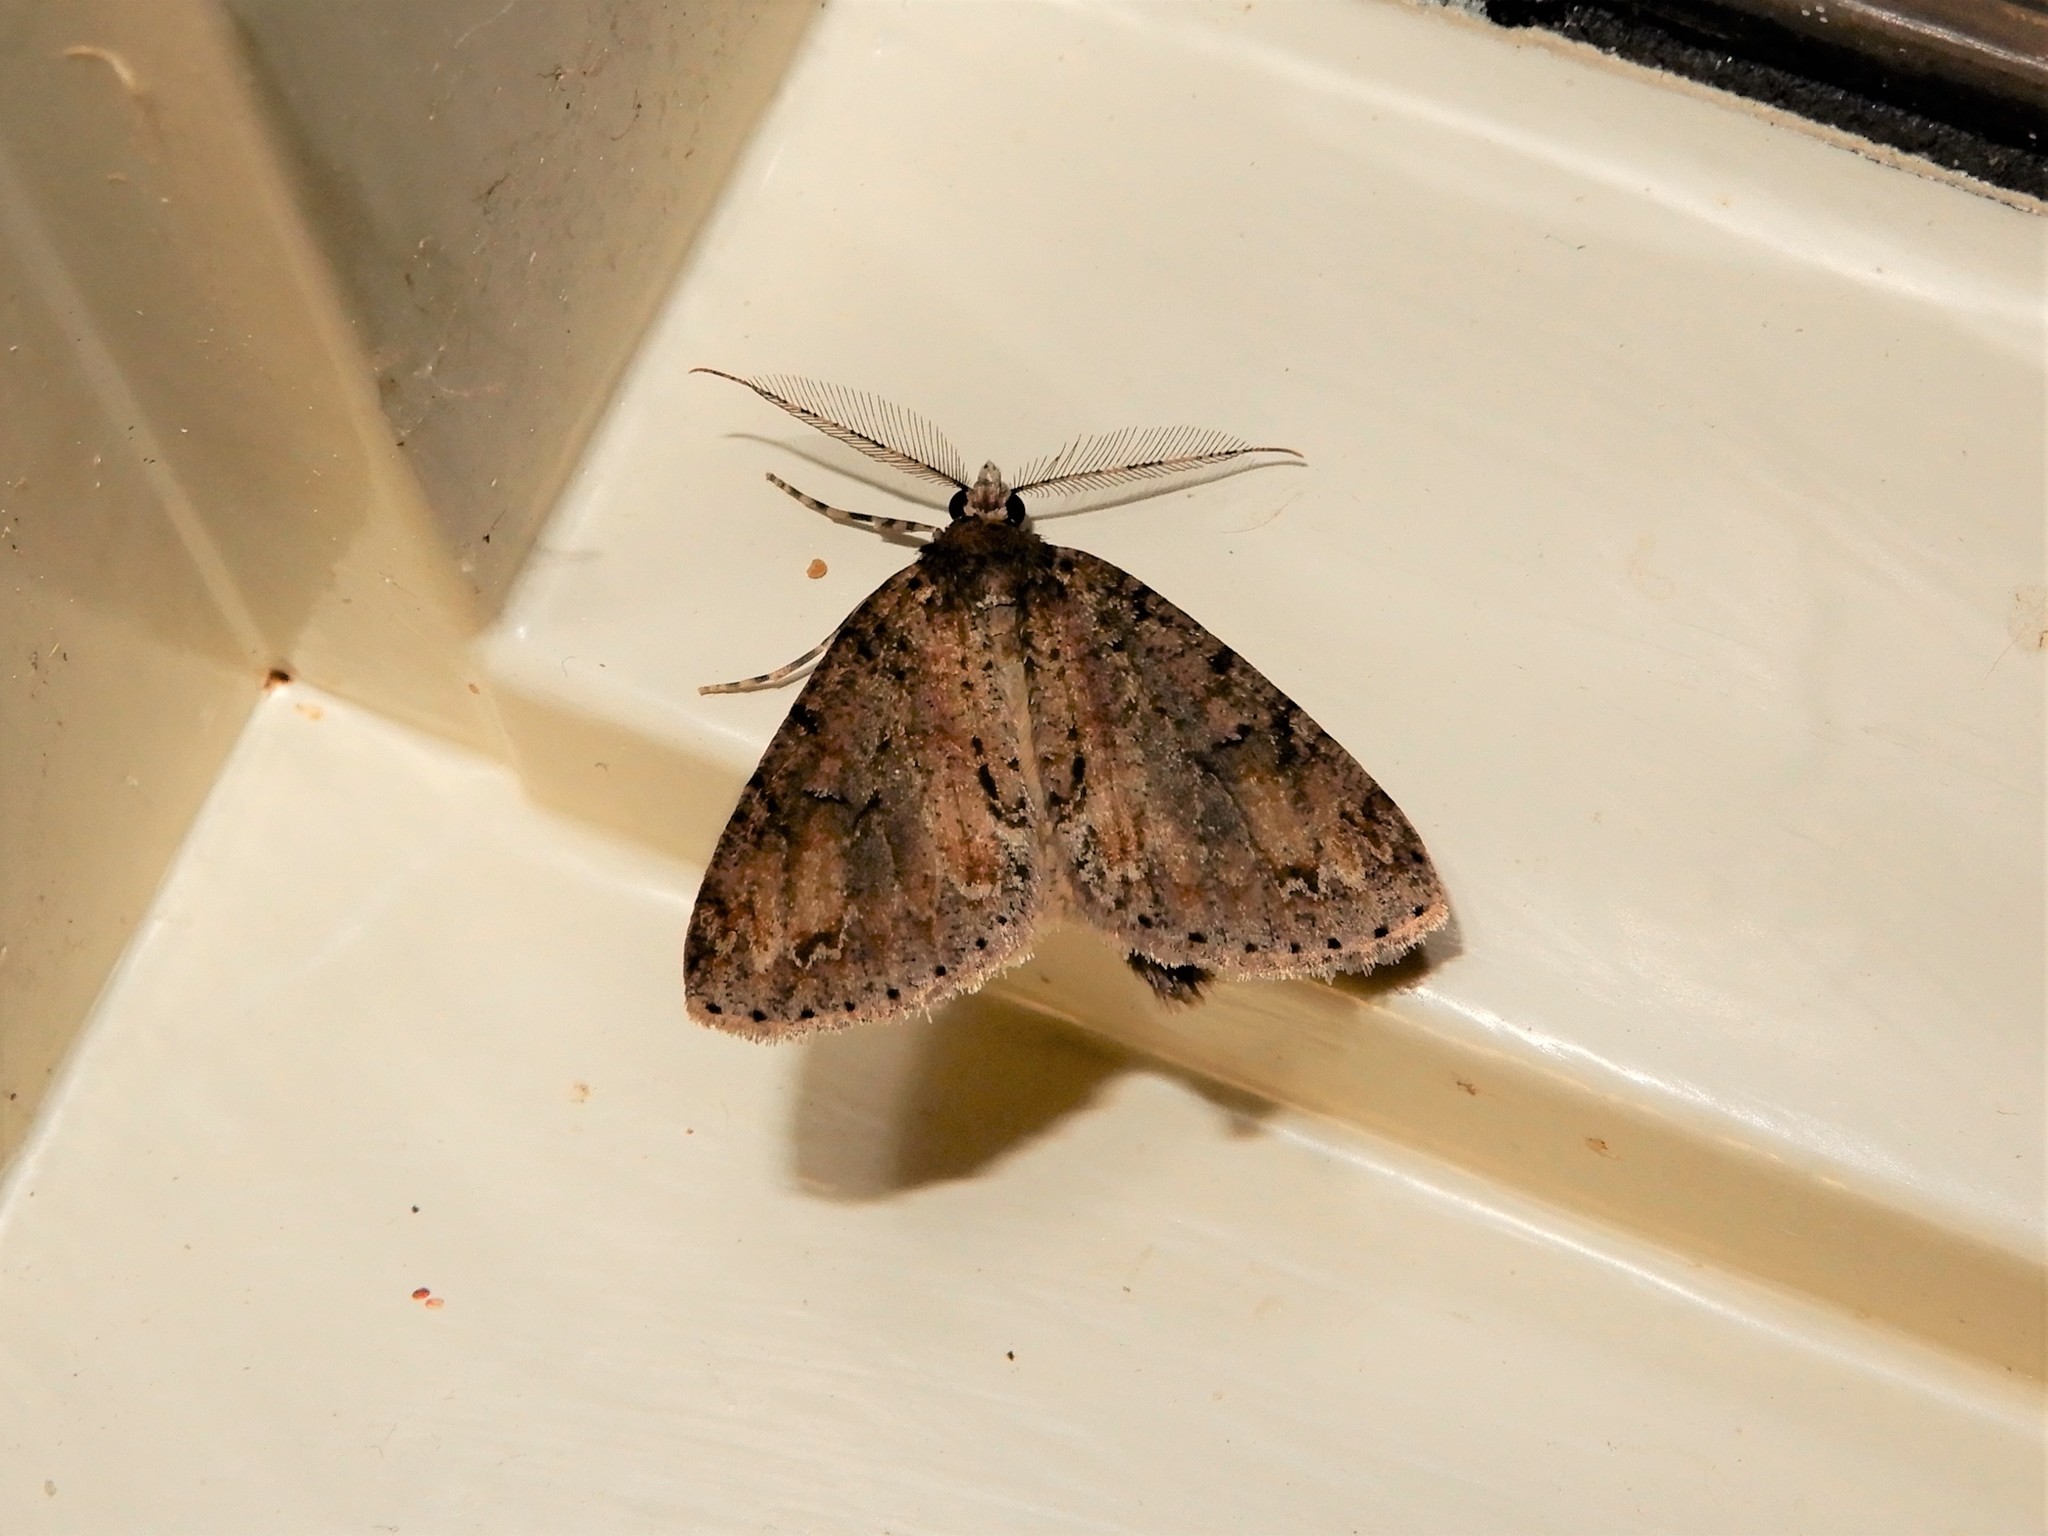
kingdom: Animalia
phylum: Arthropoda
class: Insecta
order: Lepidoptera
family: Geometridae
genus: Pseudocoremia
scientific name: Pseudocoremia suavis
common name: Common forest looper
